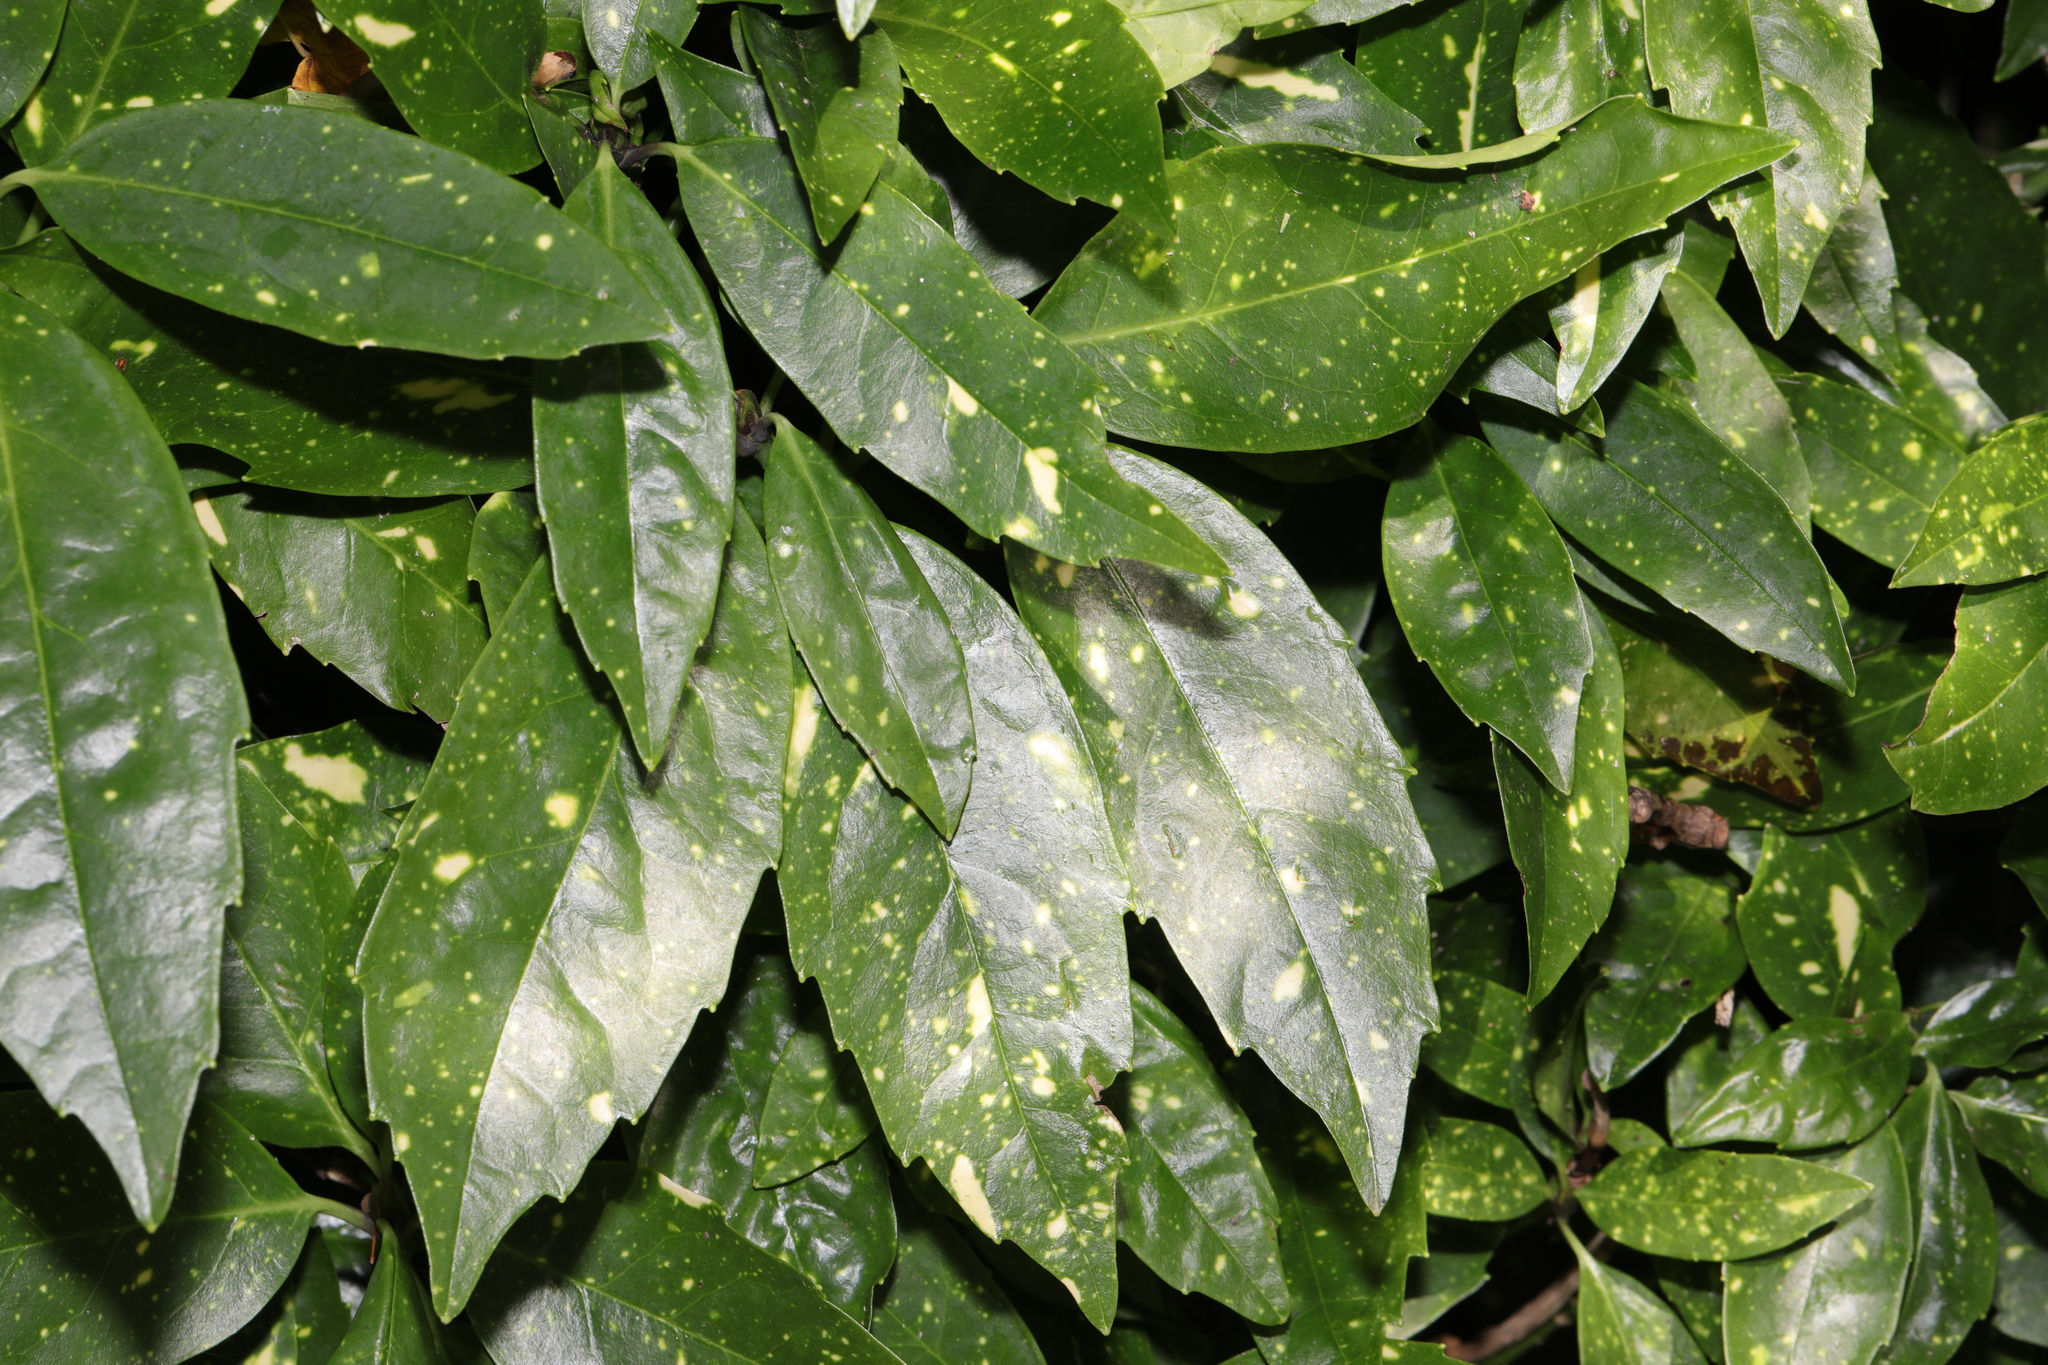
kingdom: Plantae
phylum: Tracheophyta
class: Magnoliopsida
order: Garryales
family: Garryaceae
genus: Aucuba
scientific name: Aucuba japonica
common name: Spotted-laurel
